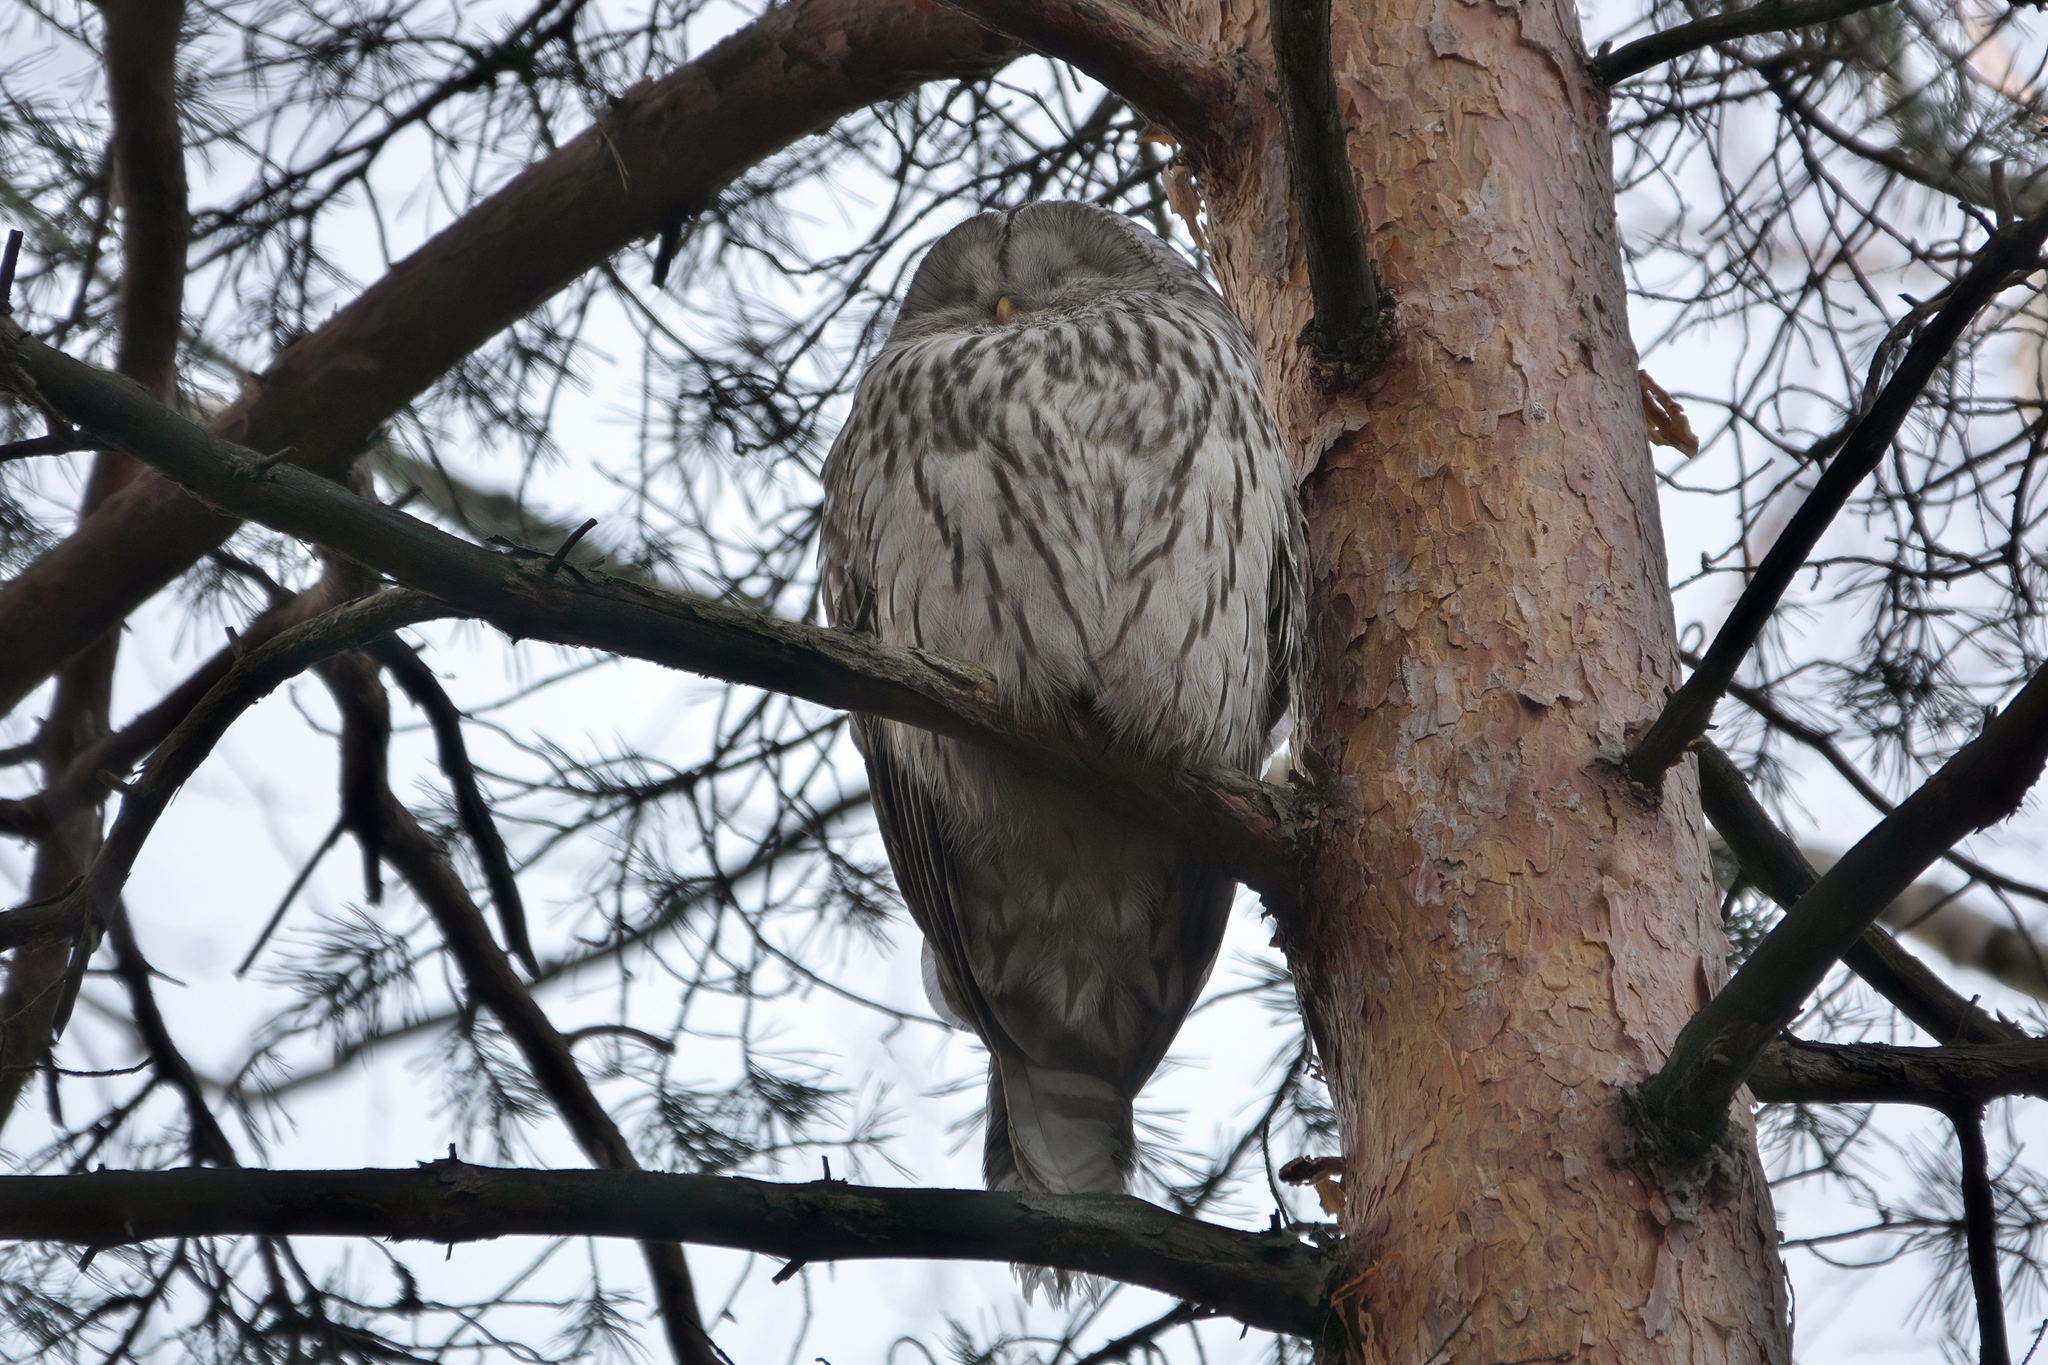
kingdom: Animalia
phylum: Chordata
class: Aves
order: Strigiformes
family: Strigidae
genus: Strix
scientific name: Strix uralensis
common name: Ural owl
